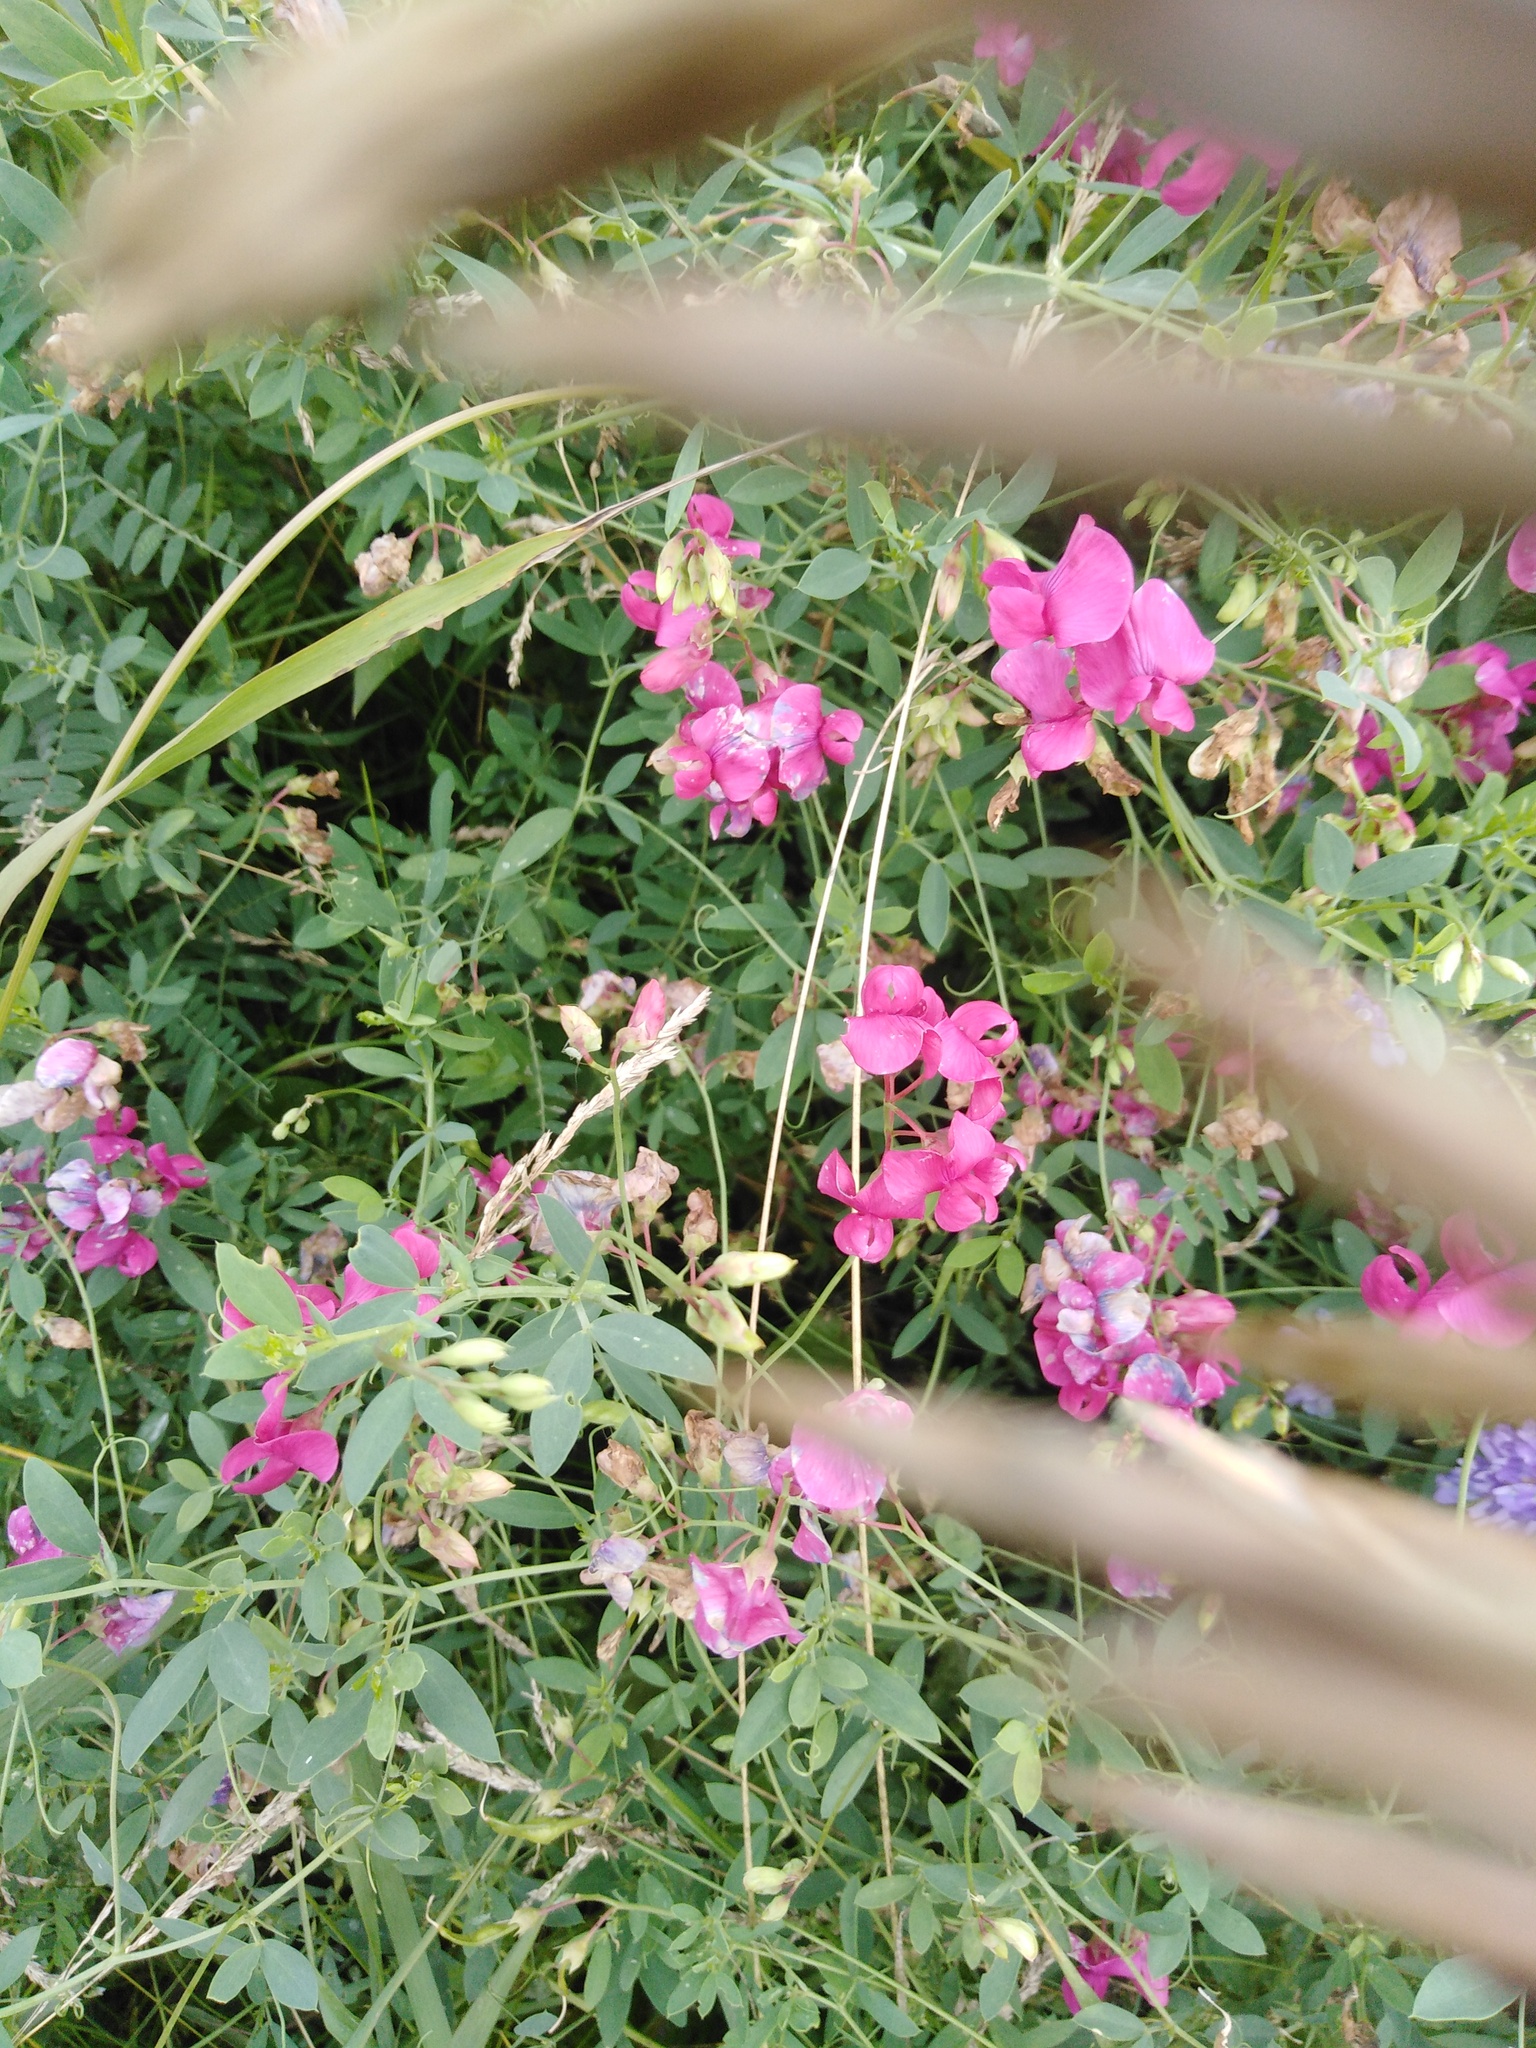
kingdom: Plantae
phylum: Tracheophyta
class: Magnoliopsida
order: Fabales
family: Fabaceae
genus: Lathyrus
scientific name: Lathyrus tuberosus
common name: Tuberous pea
